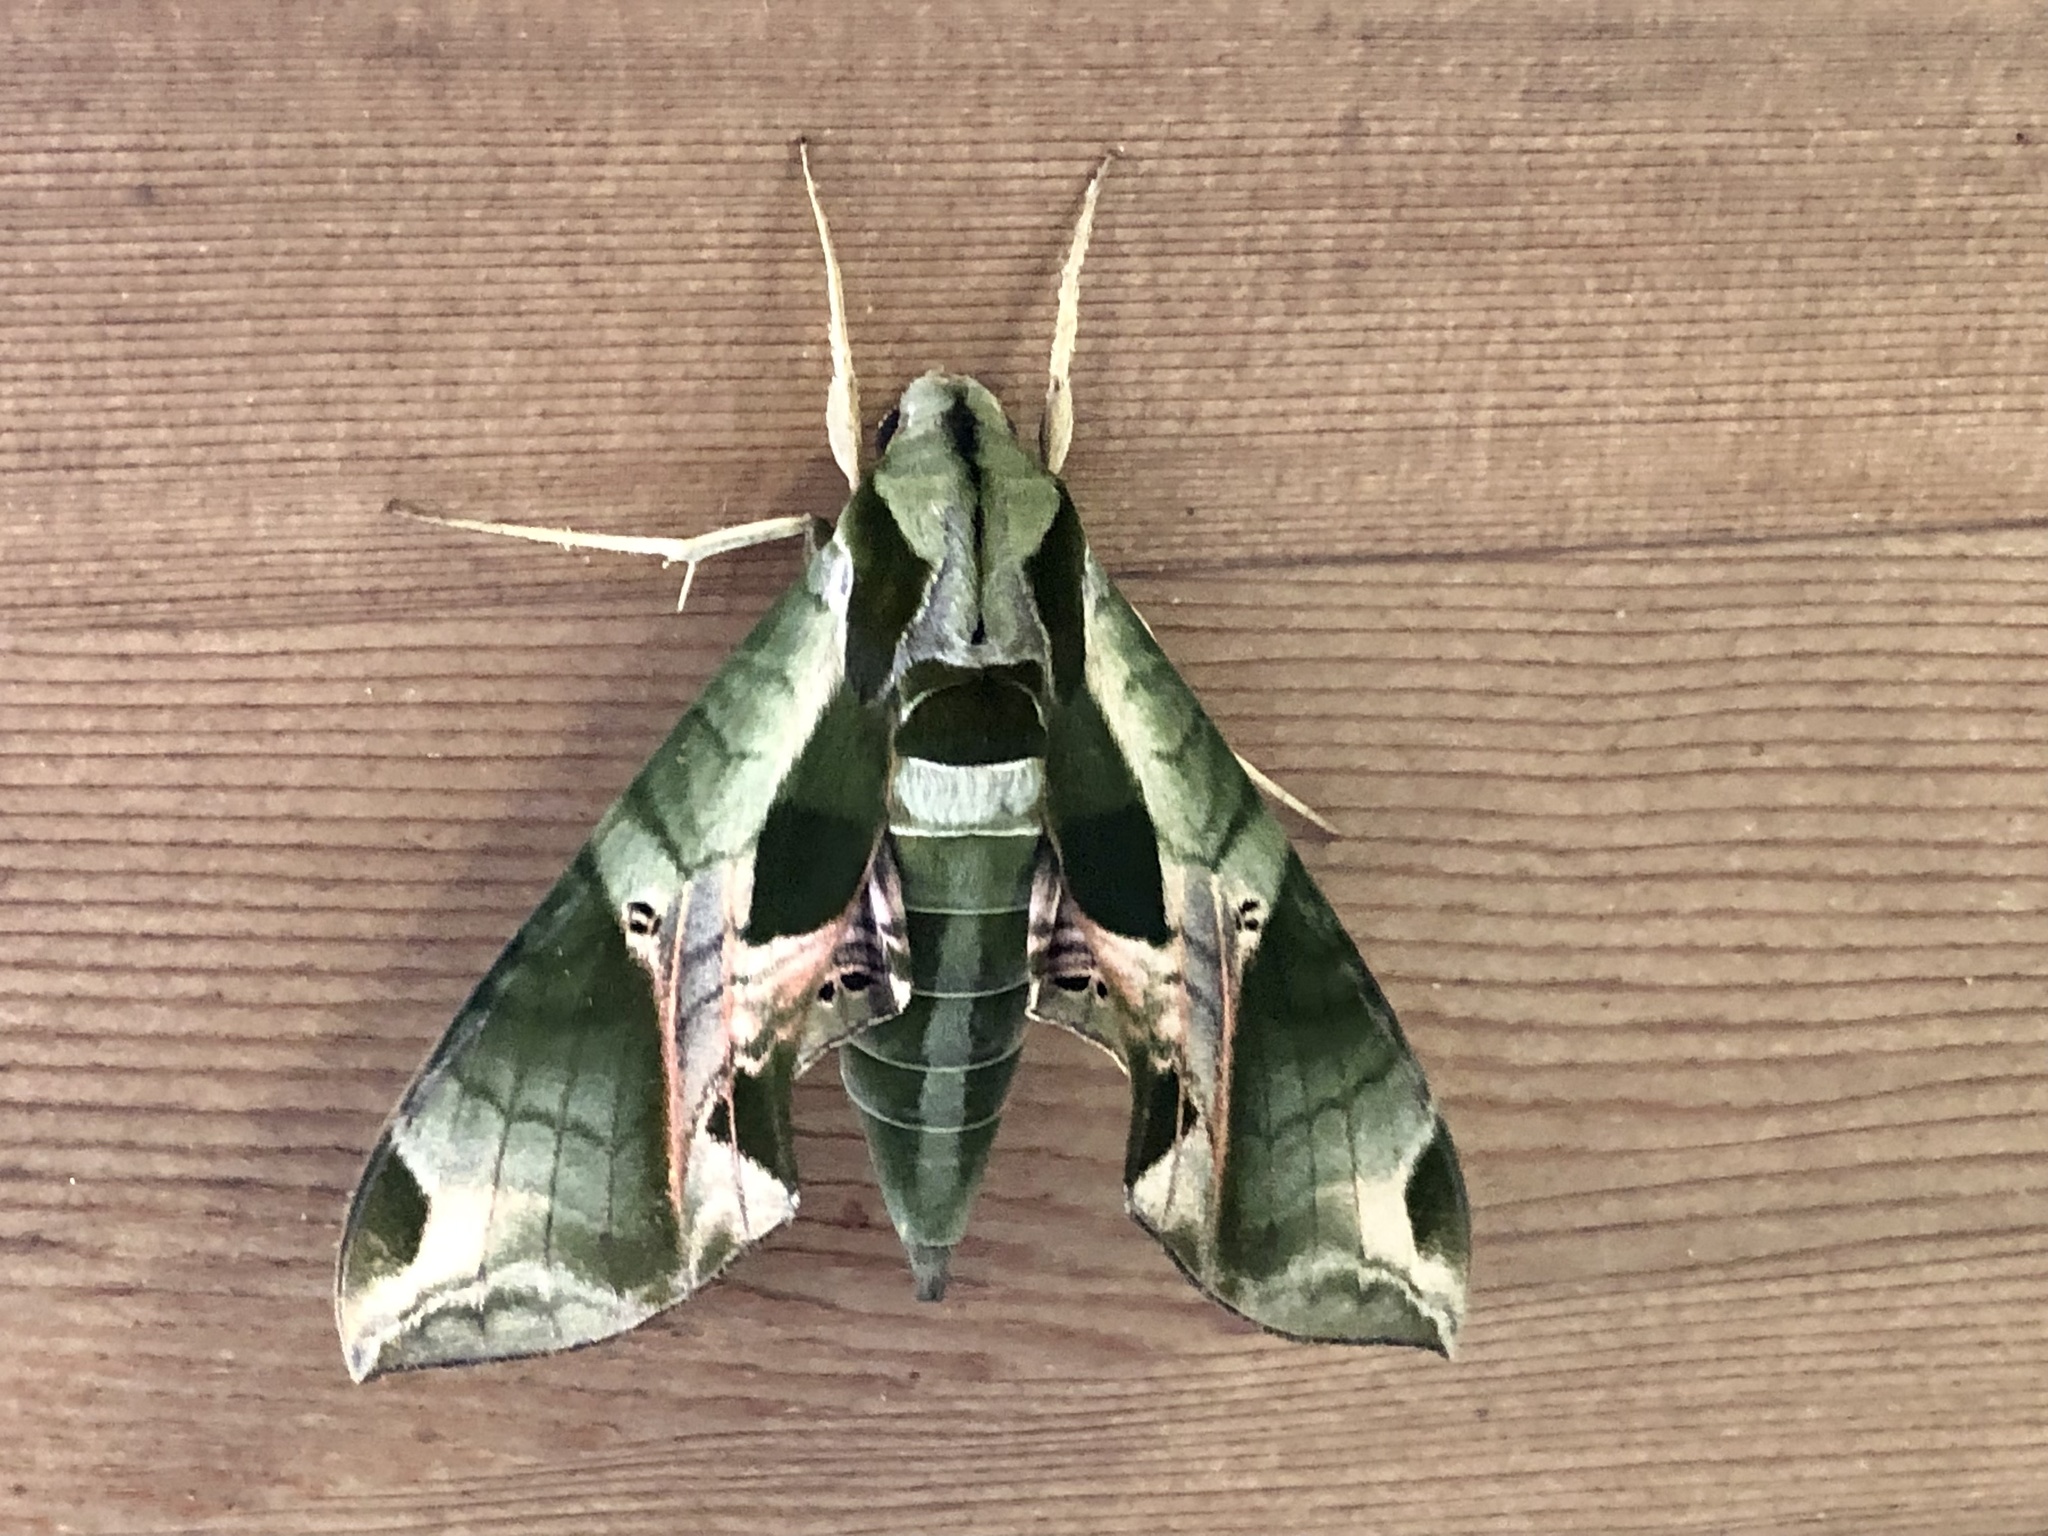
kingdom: Animalia
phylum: Arthropoda
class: Insecta
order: Lepidoptera
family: Sphingidae
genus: Eumorpha
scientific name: Eumorpha pandorus
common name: Pandora sphinx
